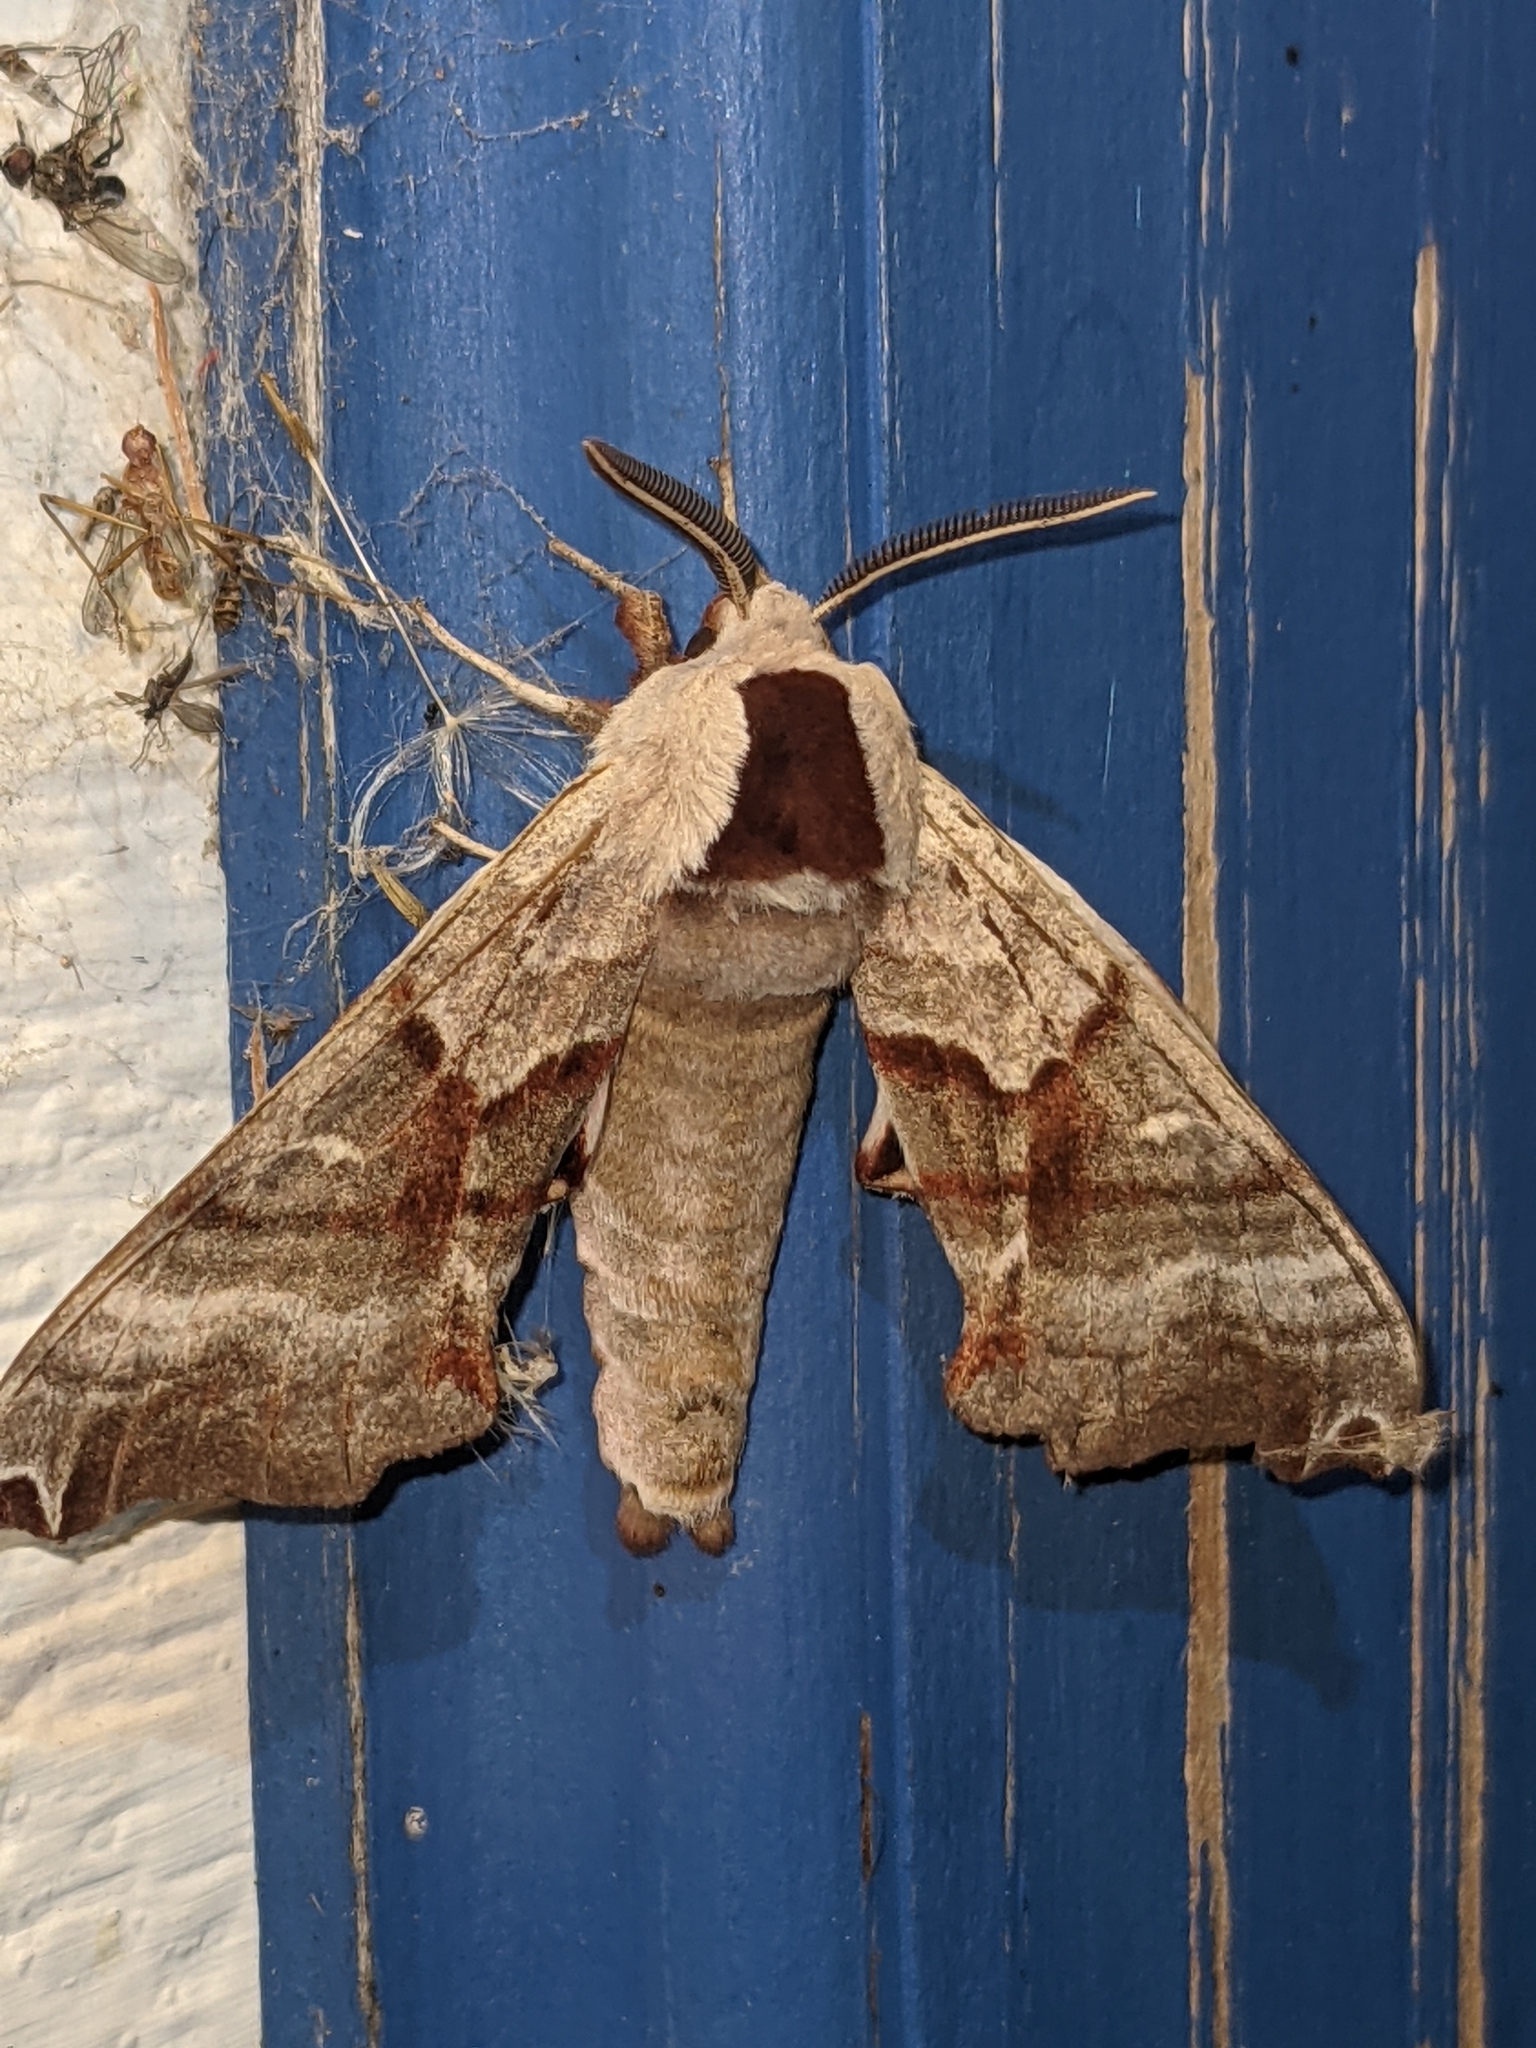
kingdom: Animalia
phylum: Arthropoda
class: Insecta
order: Lepidoptera
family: Sphingidae
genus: Smerinthus
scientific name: Smerinthus jamaicensis
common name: Twin spotted sphinx
